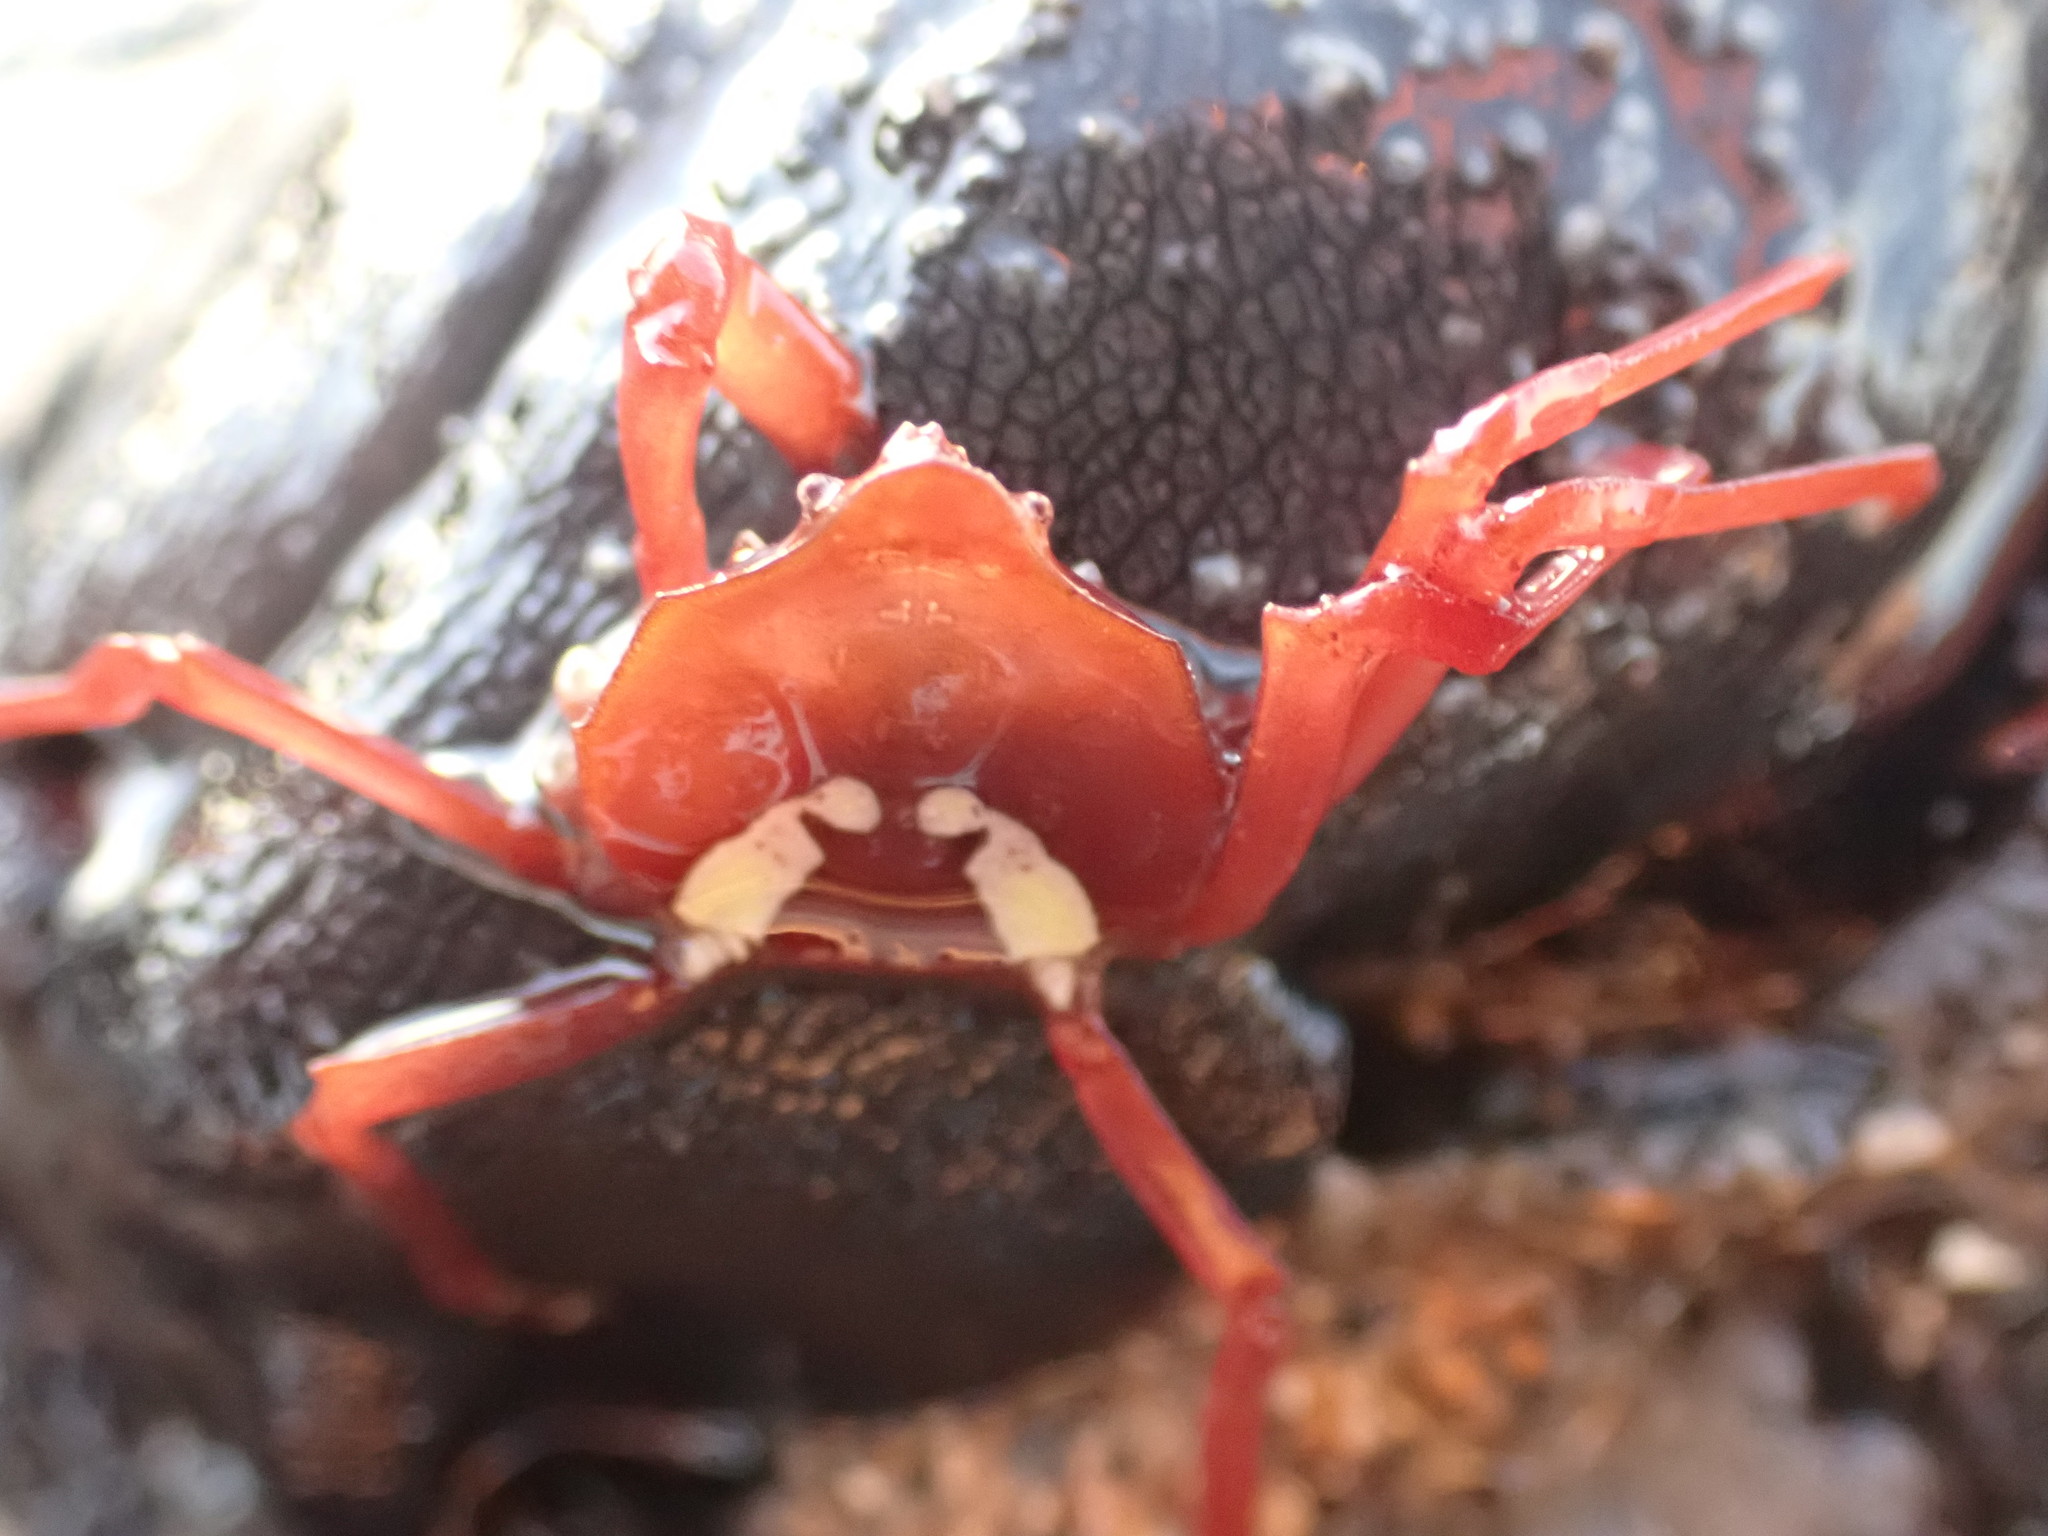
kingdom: Animalia
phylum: Arthropoda
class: Malacostraca
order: Decapoda
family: Hymenosomatidae
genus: Elamena
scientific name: Elamena producta
